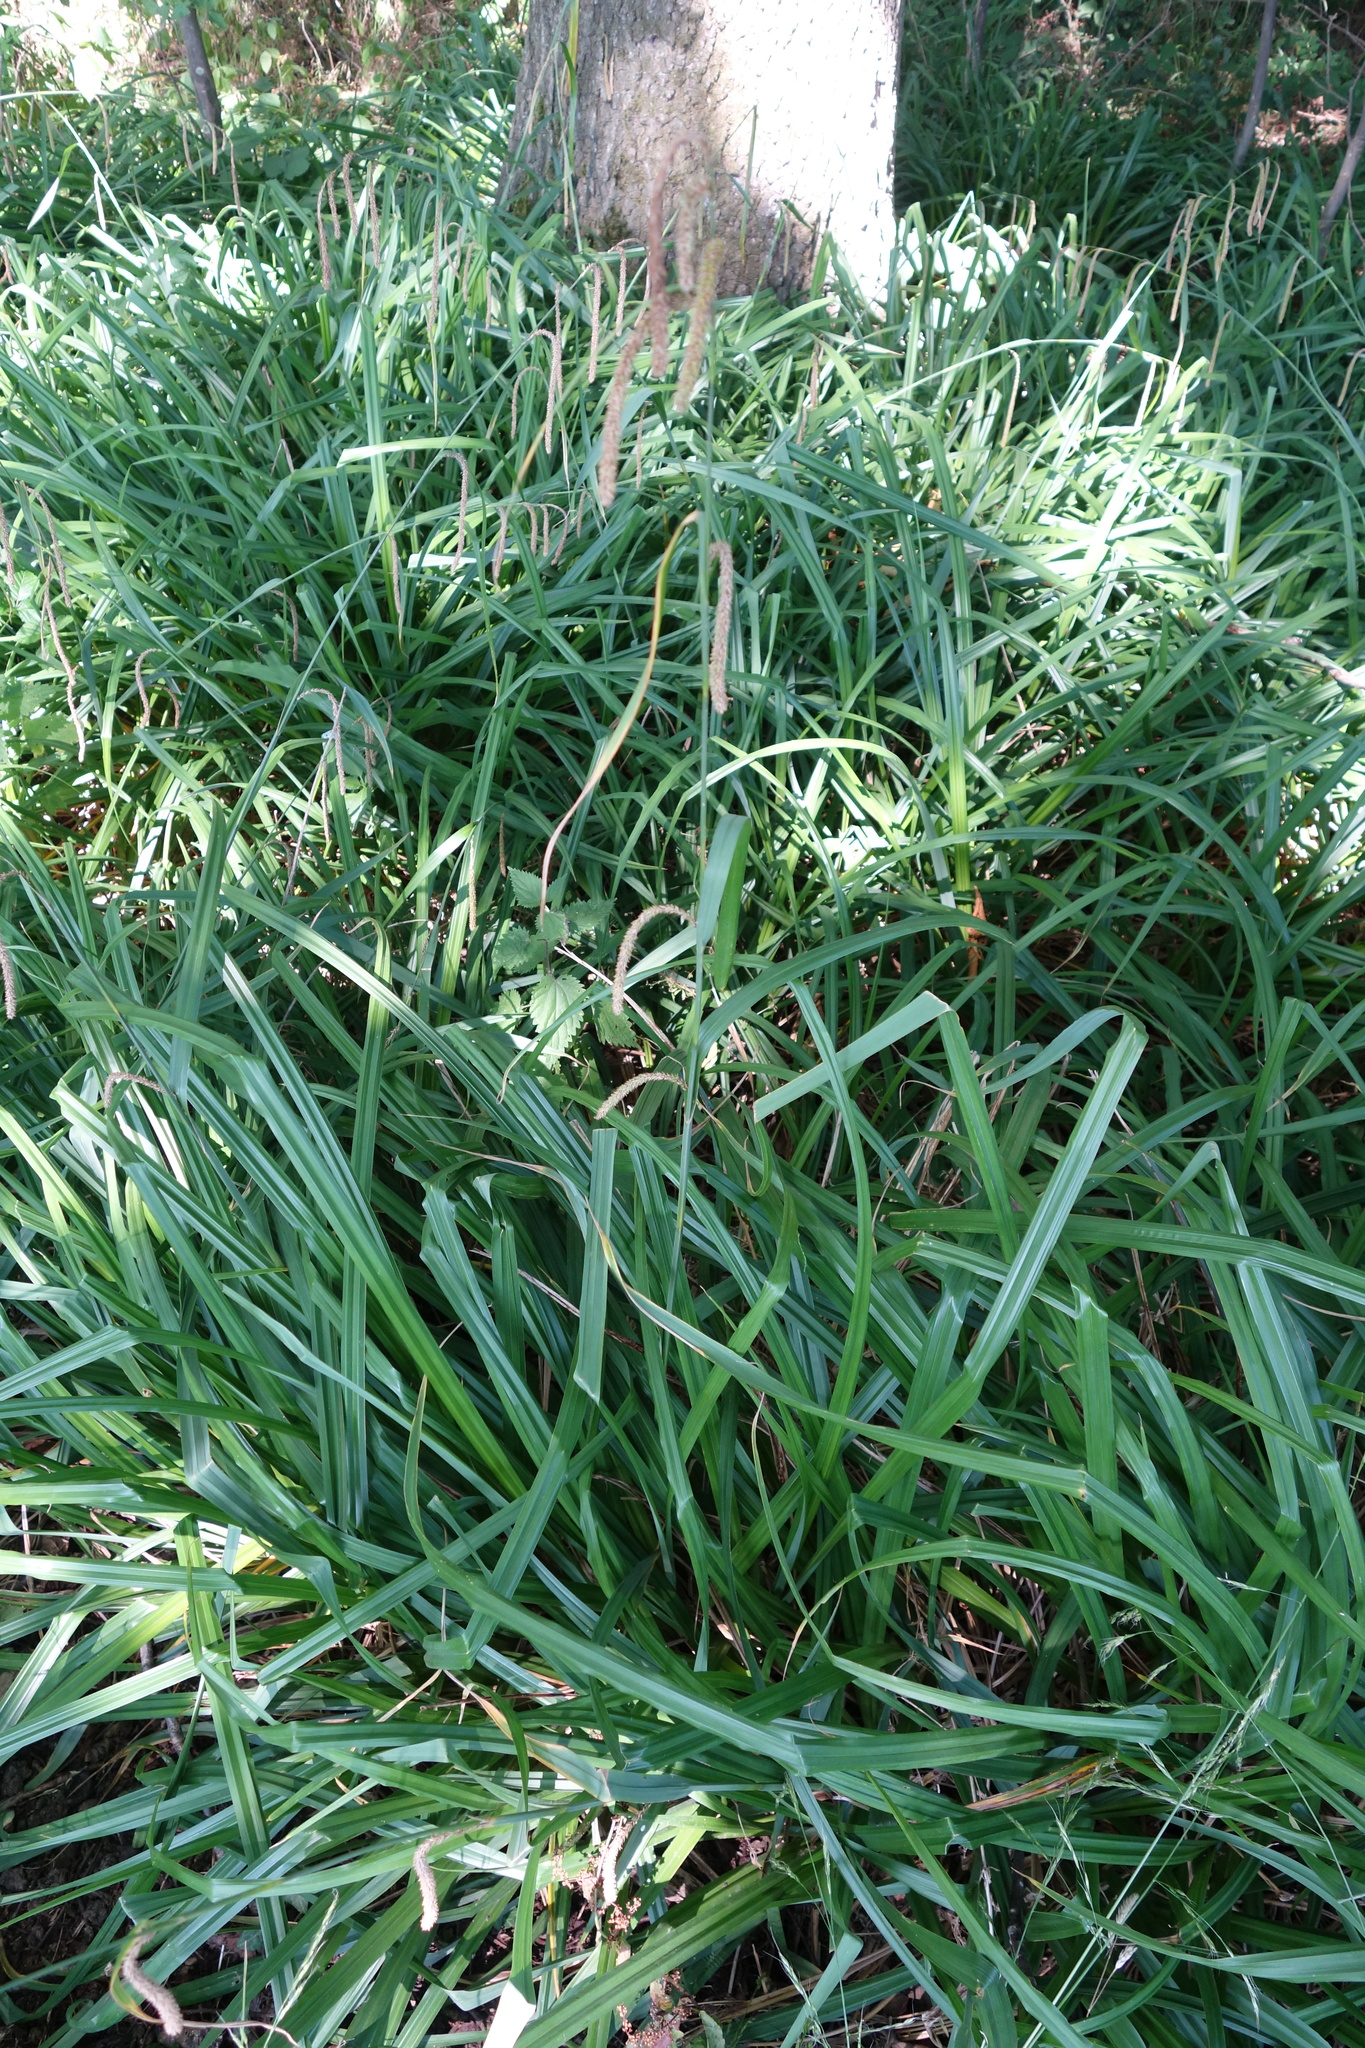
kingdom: Plantae
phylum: Tracheophyta
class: Liliopsida
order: Poales
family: Cyperaceae
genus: Carex
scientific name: Carex pendula
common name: Pendulous sedge
